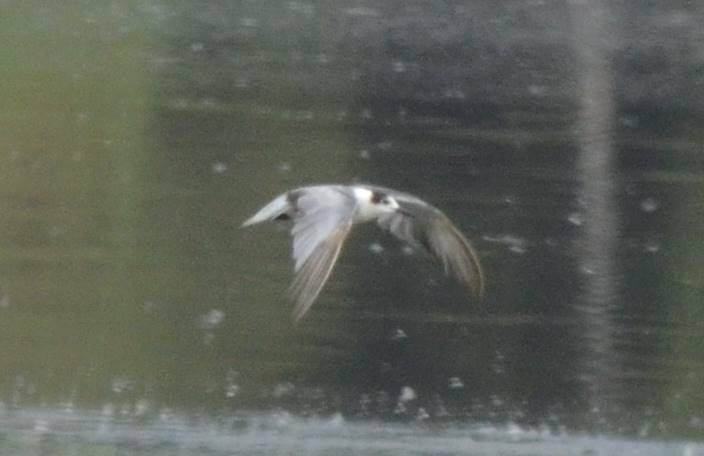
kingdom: Animalia
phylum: Chordata
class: Aves
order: Charadriiformes
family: Laridae
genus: Chlidonias
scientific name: Chlidonias niger
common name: Black tern
